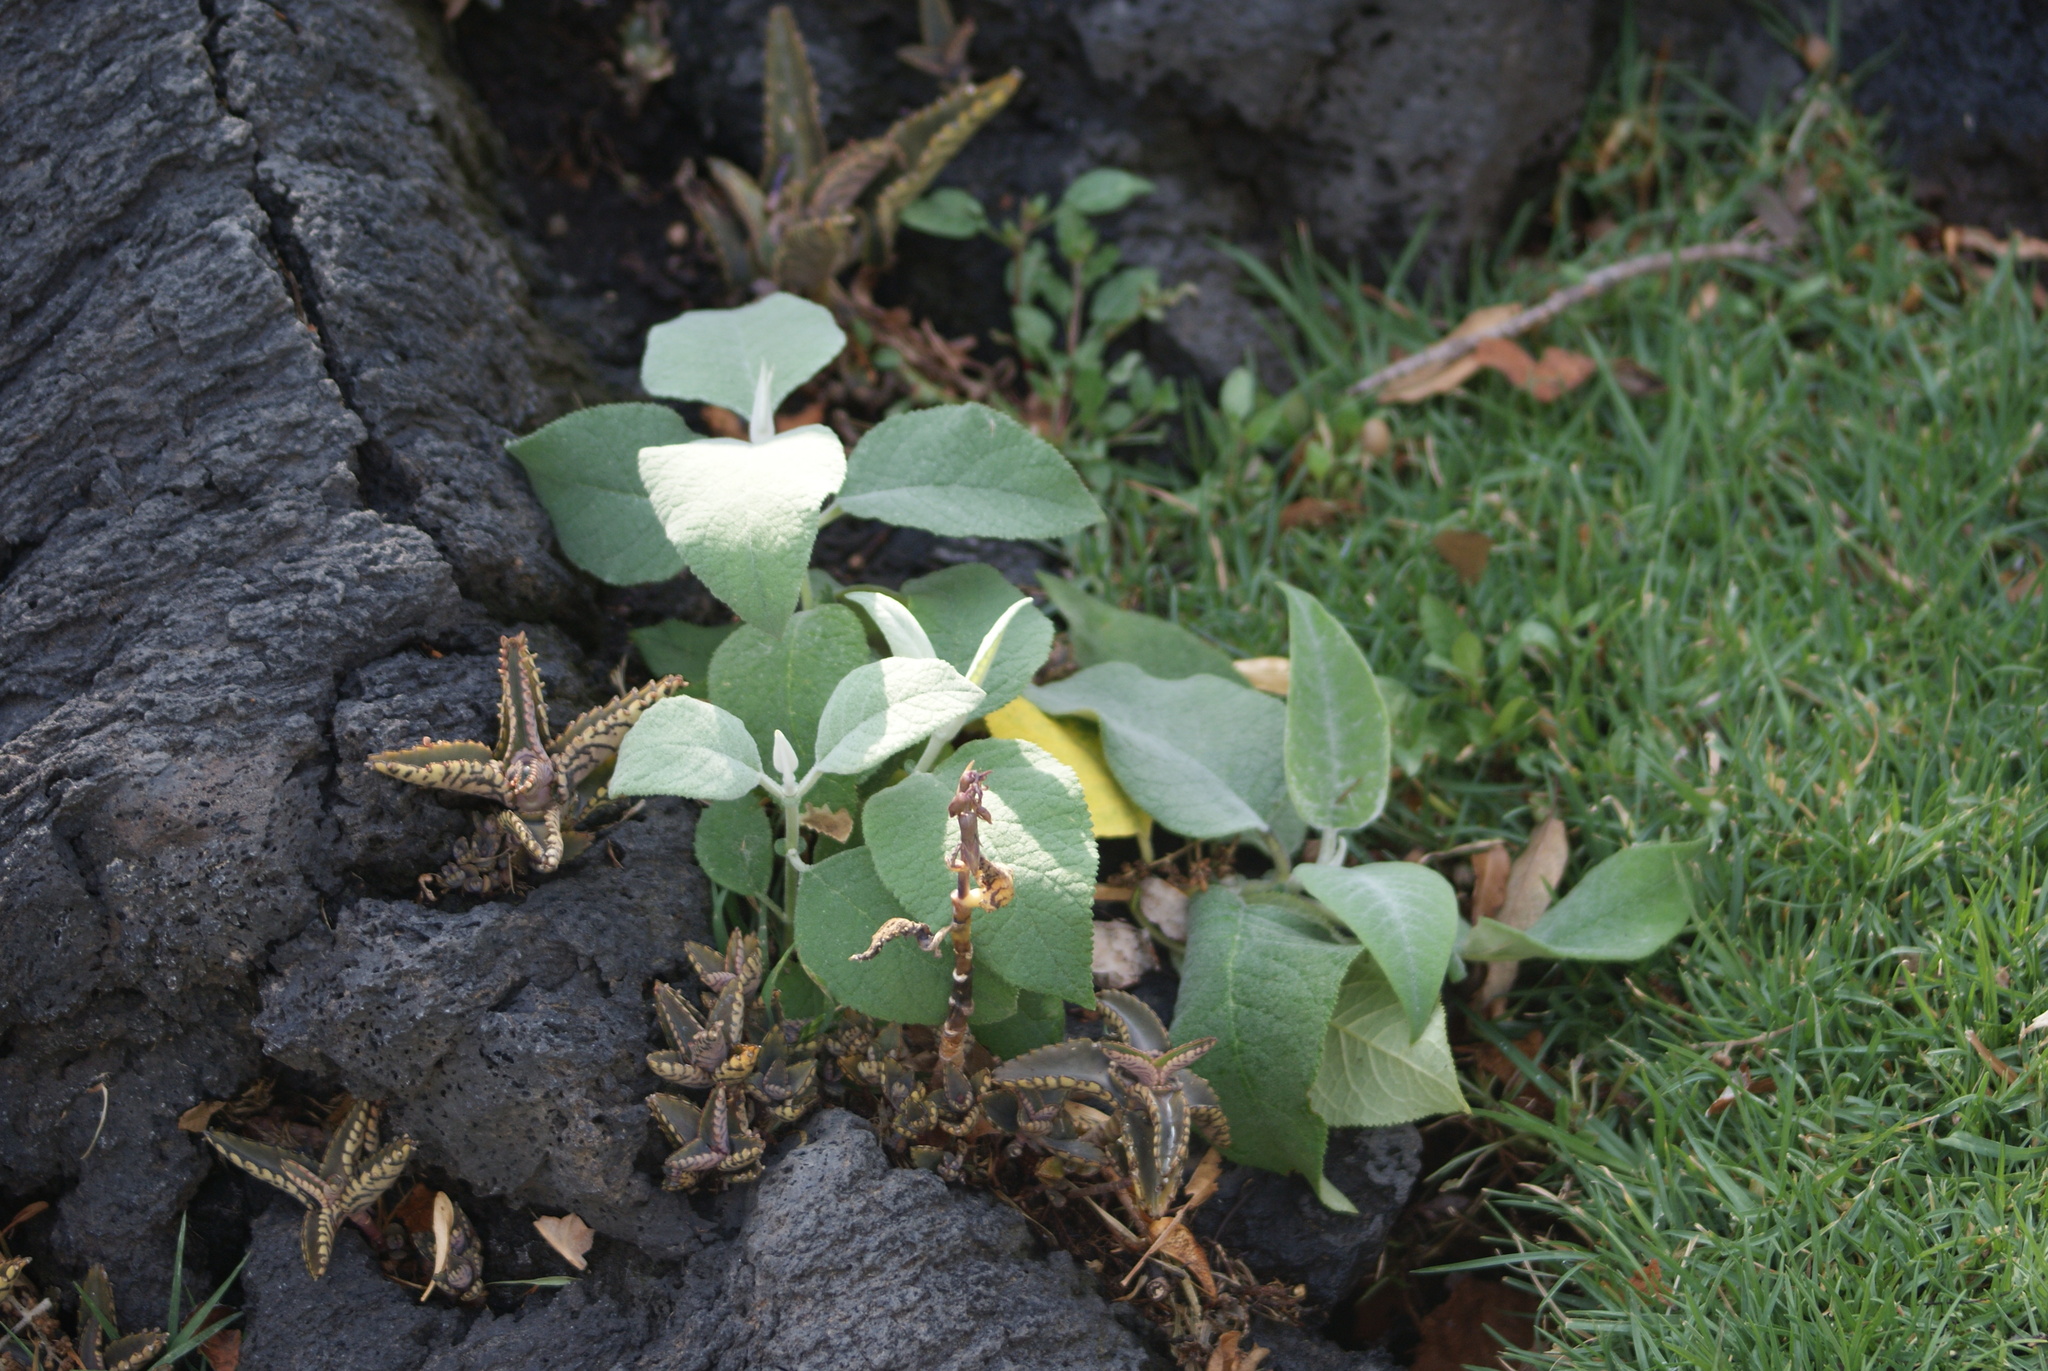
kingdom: Plantae
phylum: Tracheophyta
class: Magnoliopsida
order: Lamiales
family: Scrophulariaceae
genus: Buddleja
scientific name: Buddleja cordata
